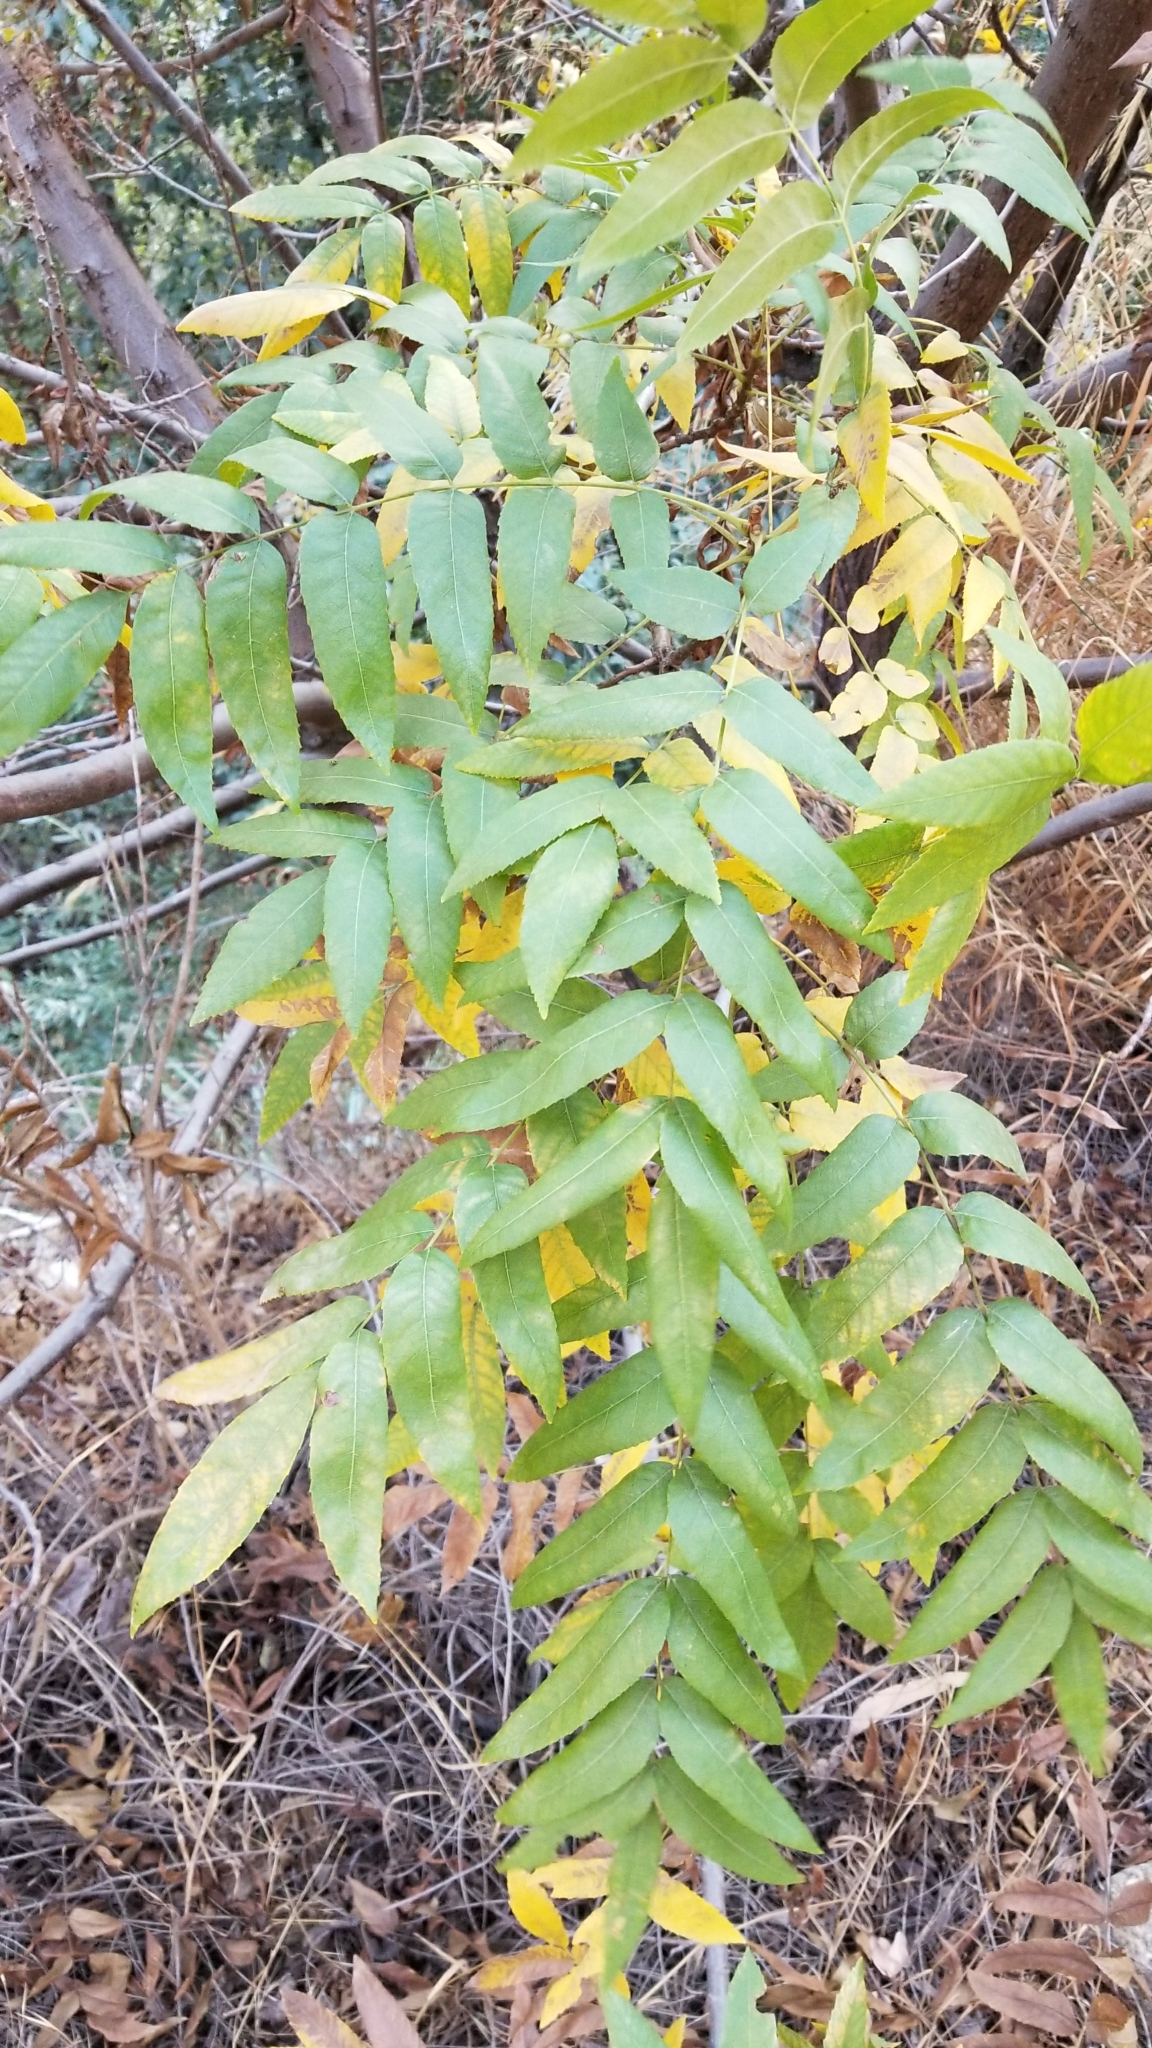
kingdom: Plantae
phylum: Tracheophyta
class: Magnoliopsida
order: Fagales
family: Juglandaceae
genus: Juglans
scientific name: Juglans californica
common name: Southern california black walnut
